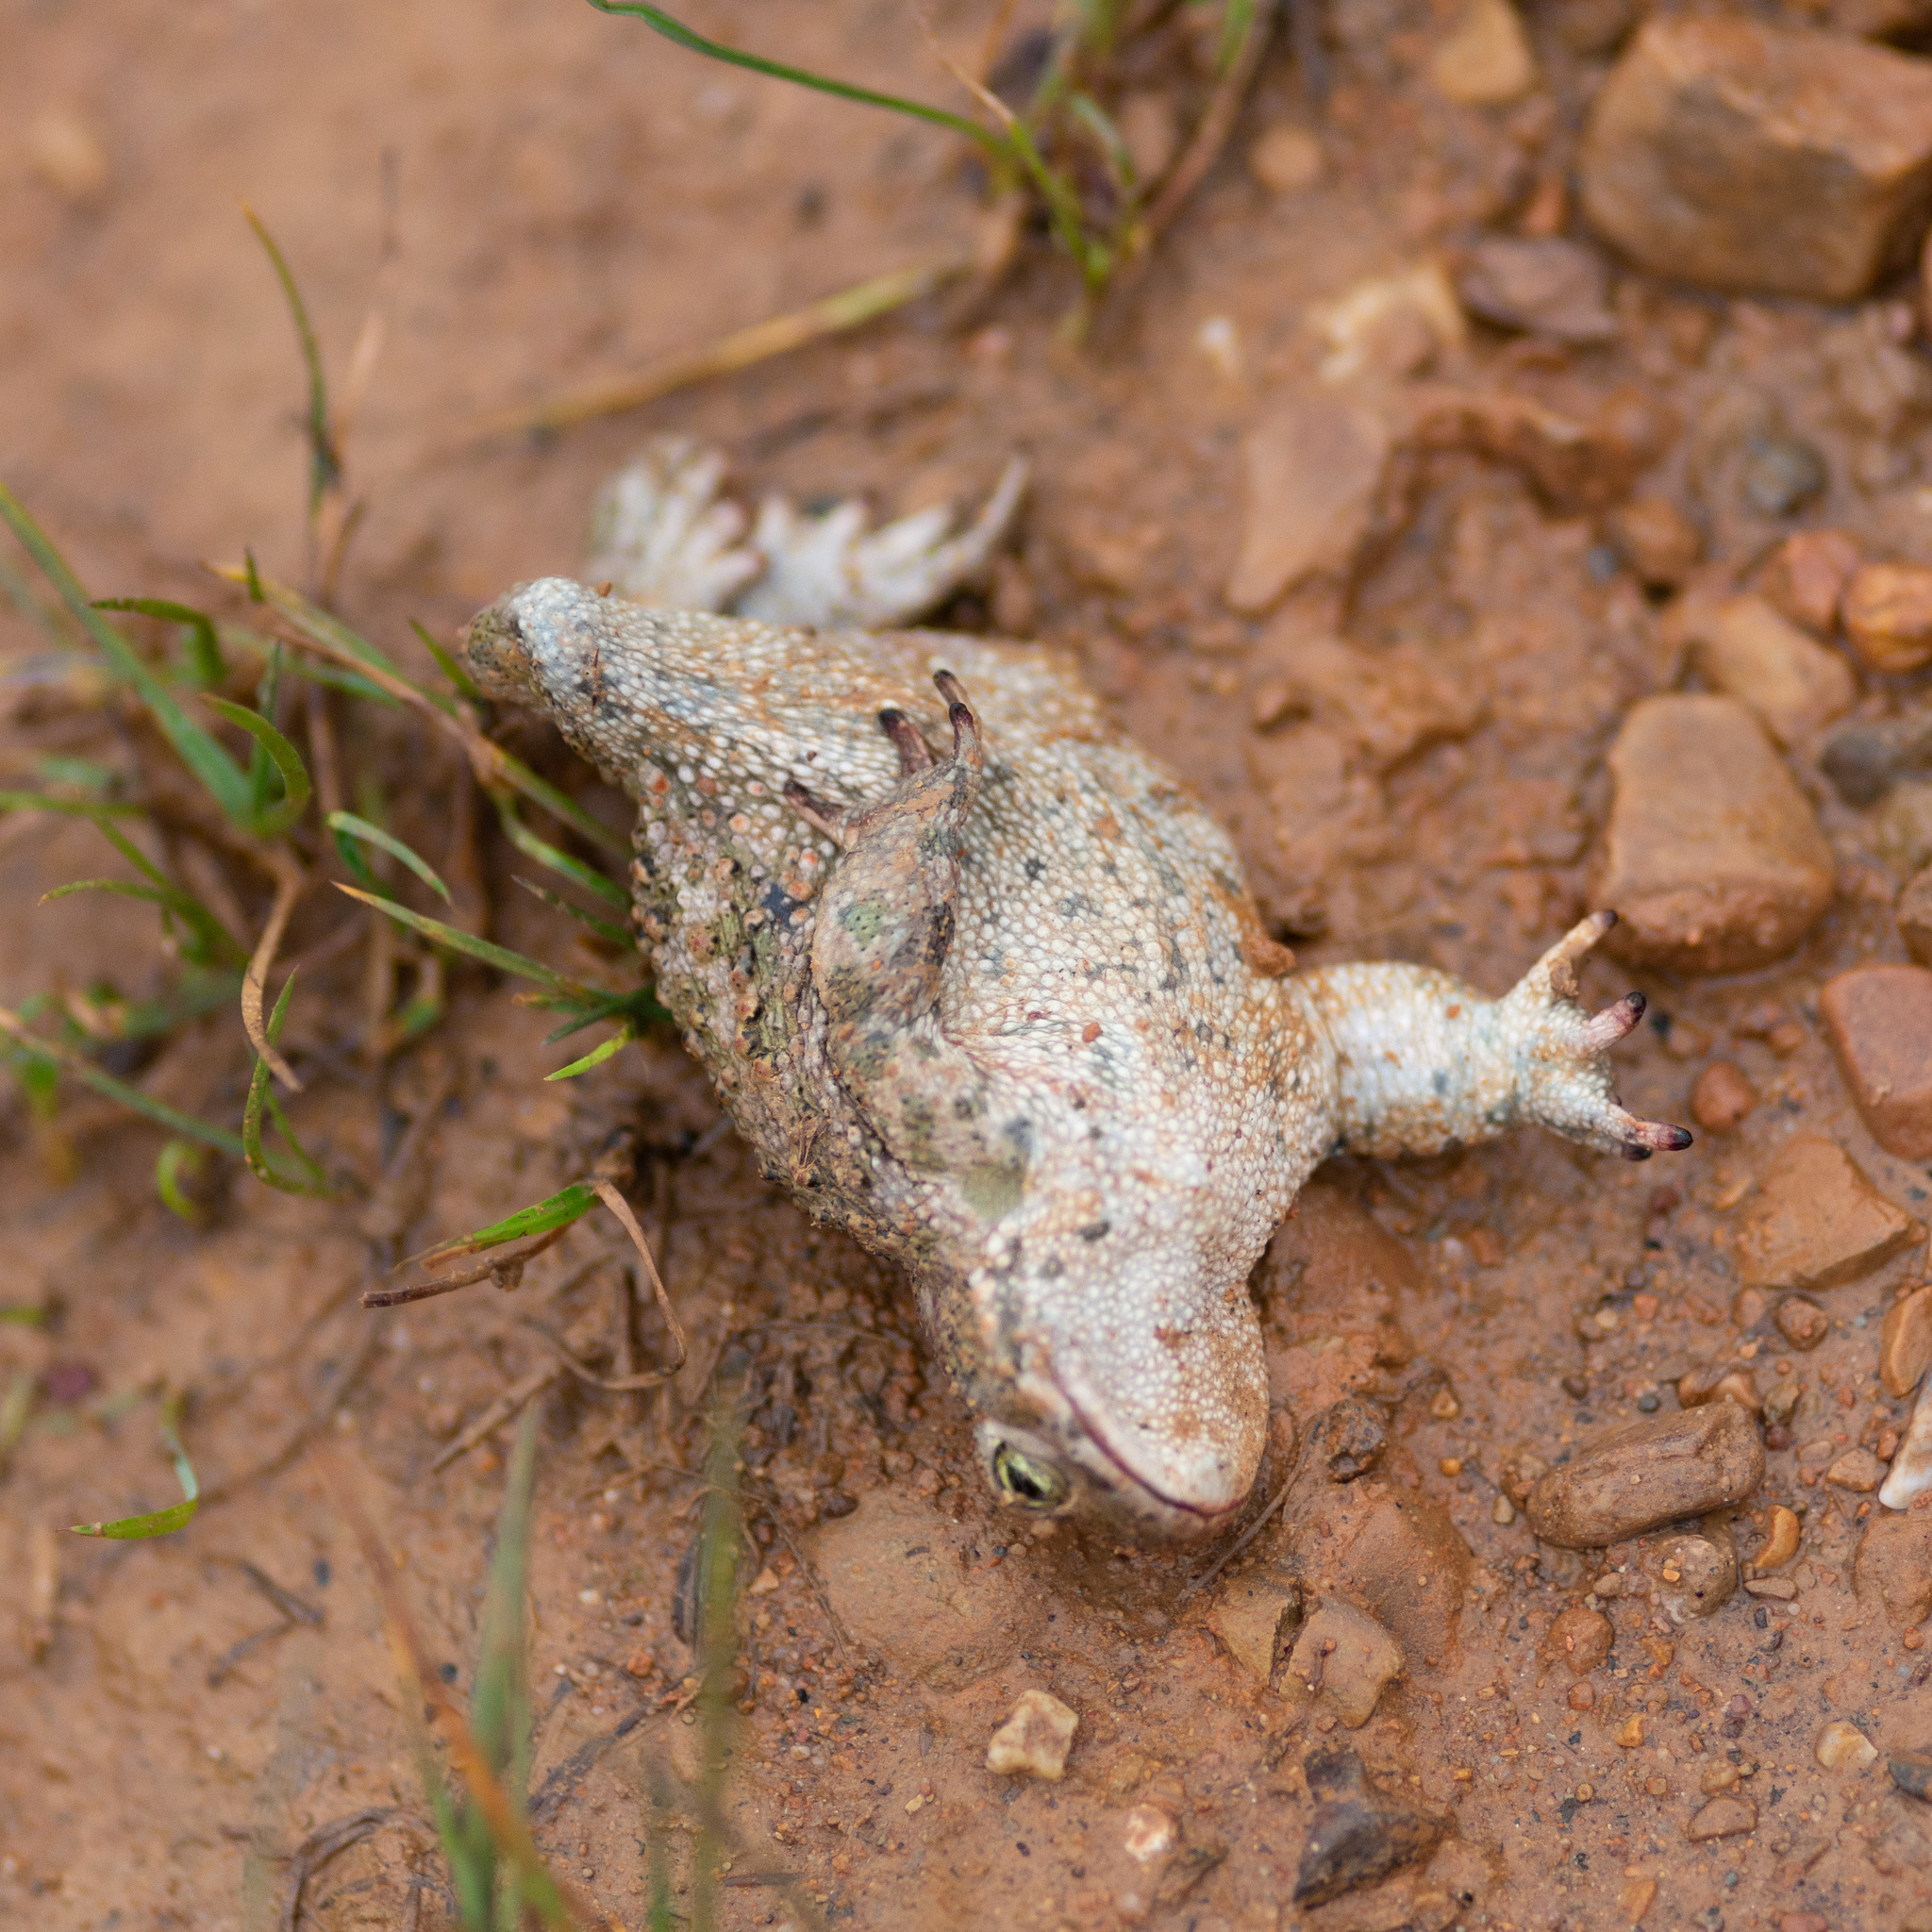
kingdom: Animalia
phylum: Chordata
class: Amphibia
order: Anura
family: Bufonidae
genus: Epidalea
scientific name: Epidalea calamita
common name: Natterjack toad
